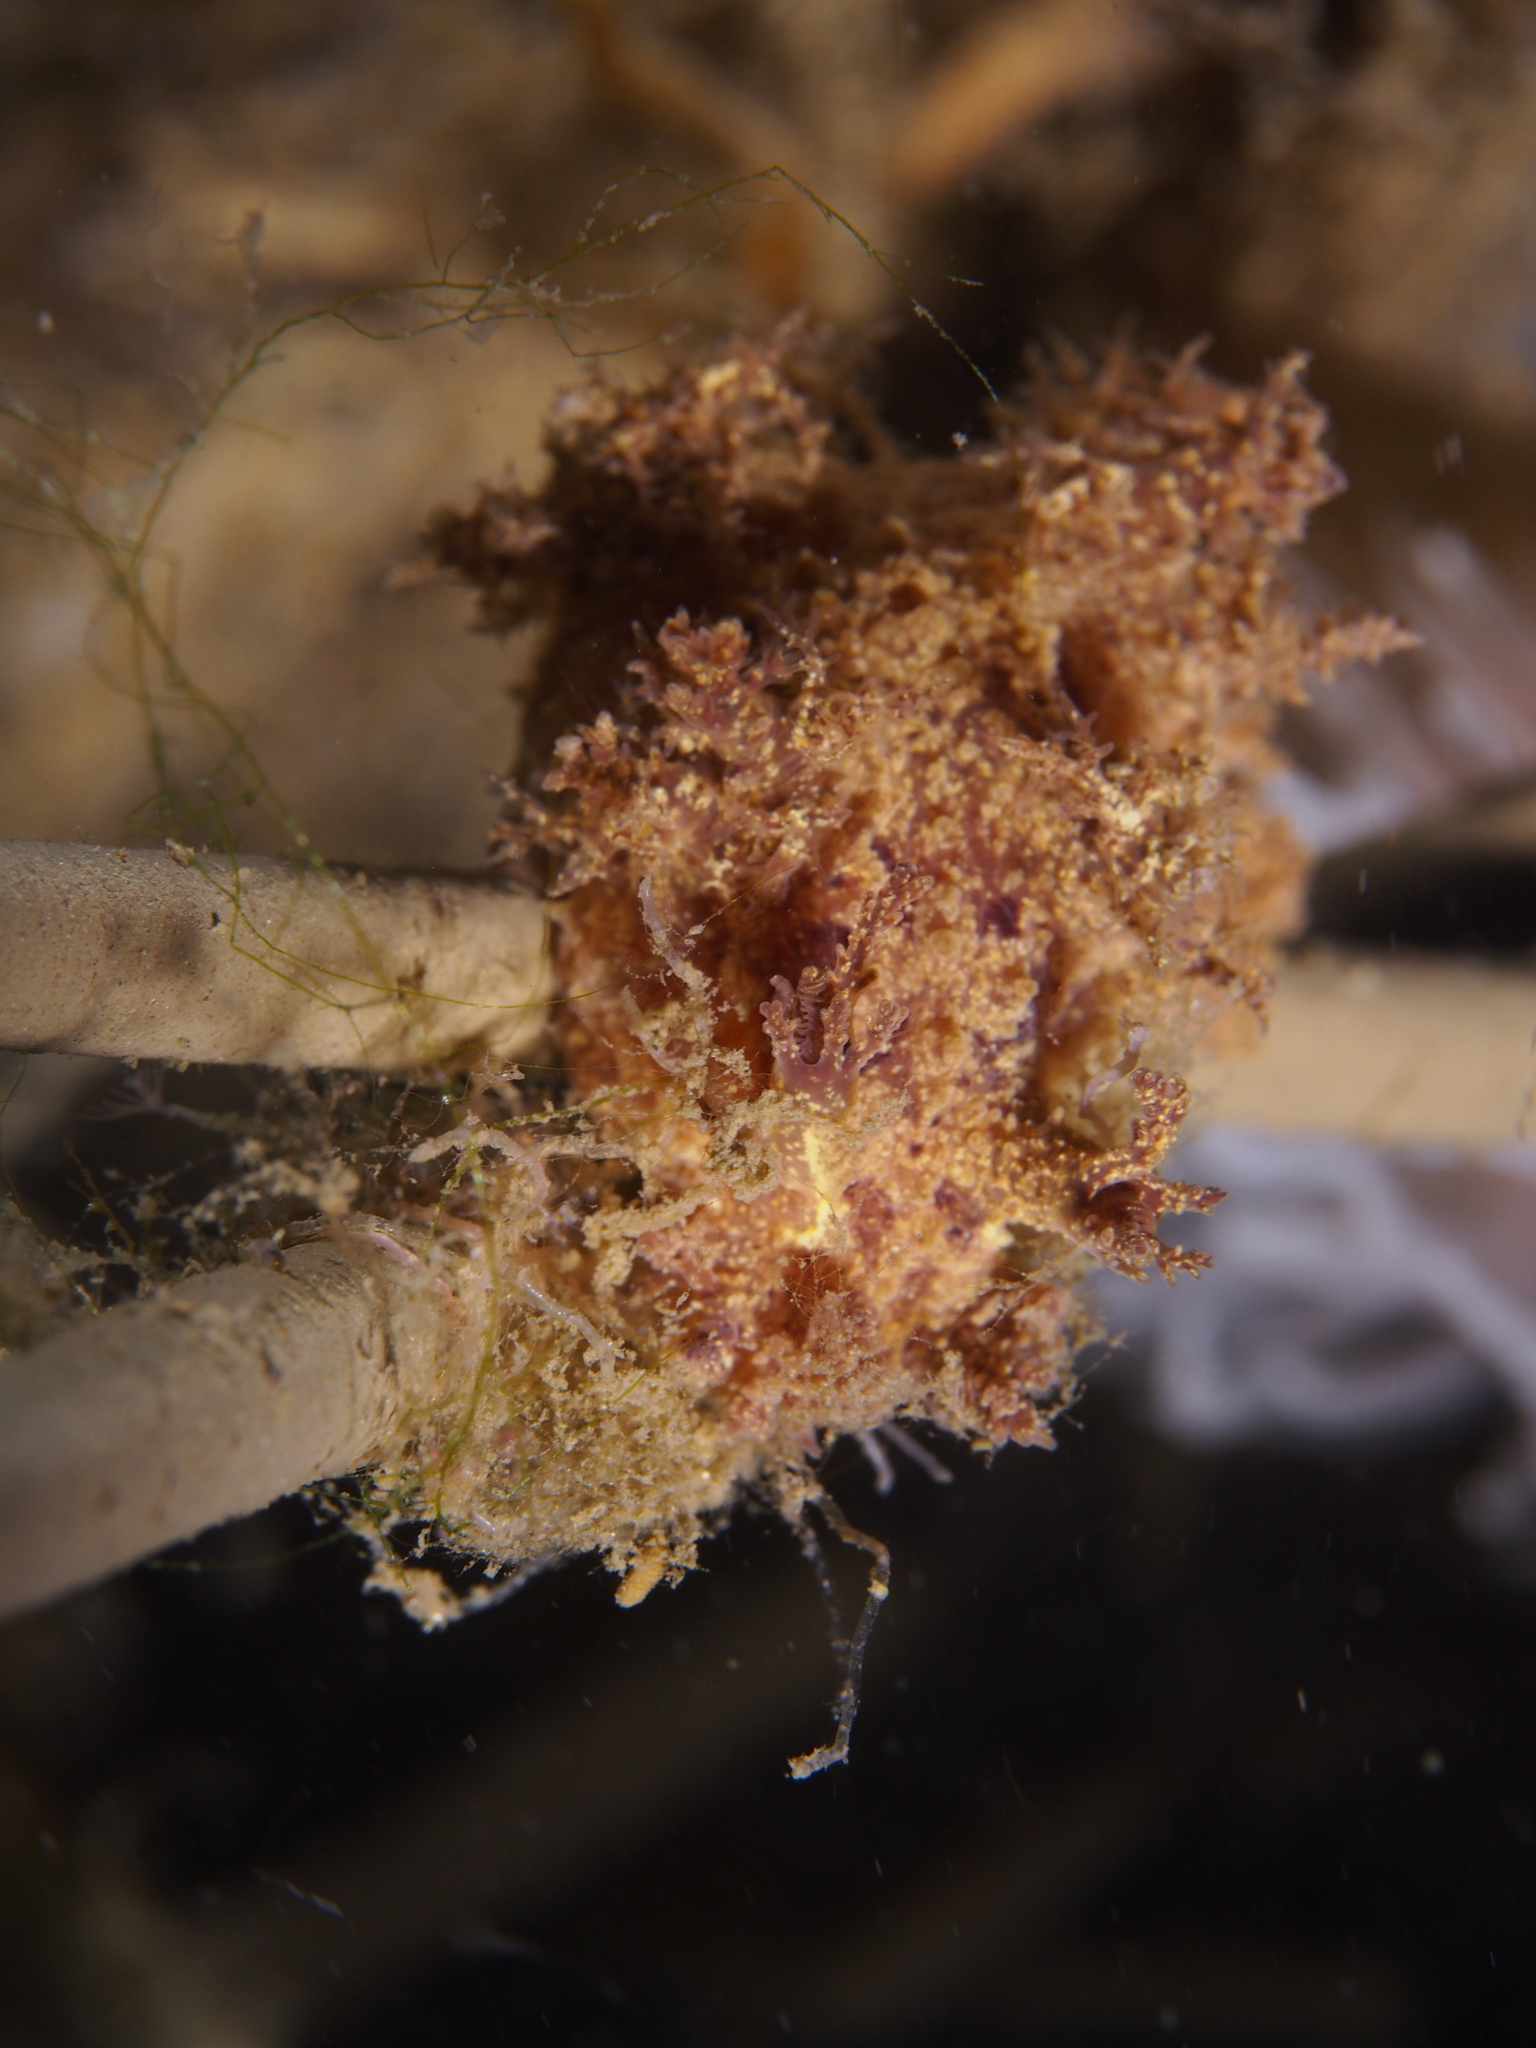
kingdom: Animalia
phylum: Mollusca
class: Gastropoda
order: Nudibranchia
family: Dendronotidae
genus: Dendronotus
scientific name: Dendronotus europaeus
